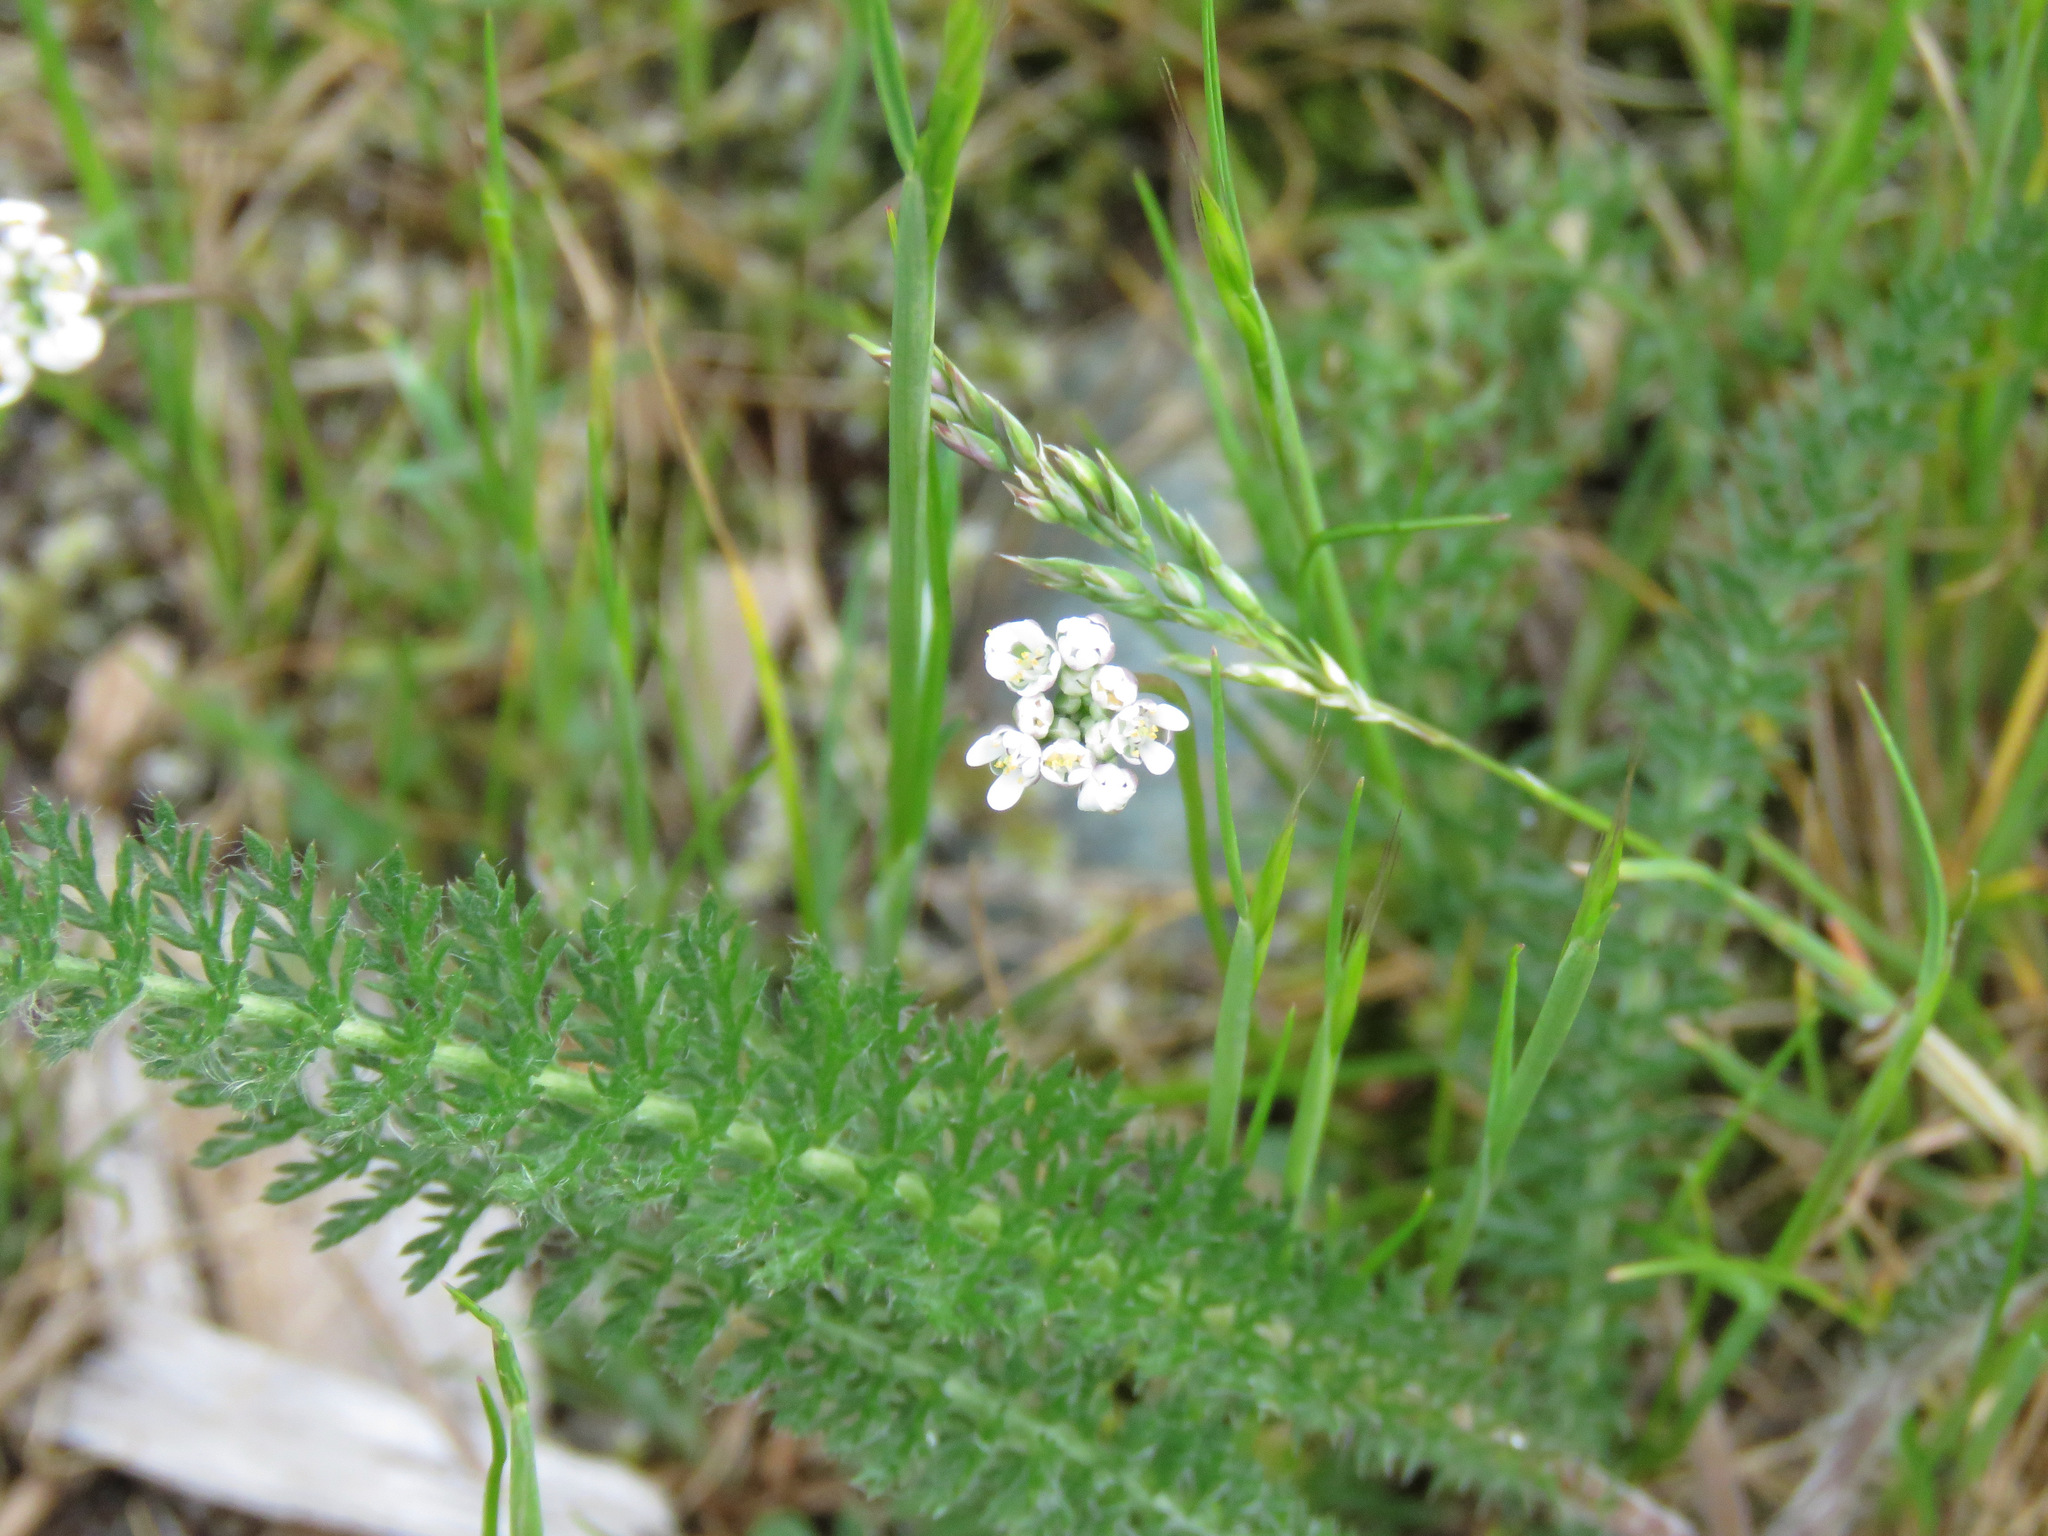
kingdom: Plantae
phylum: Tracheophyta
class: Magnoliopsida
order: Asterales
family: Asteraceae
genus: Achillea
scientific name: Achillea millefolium
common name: Yarrow
